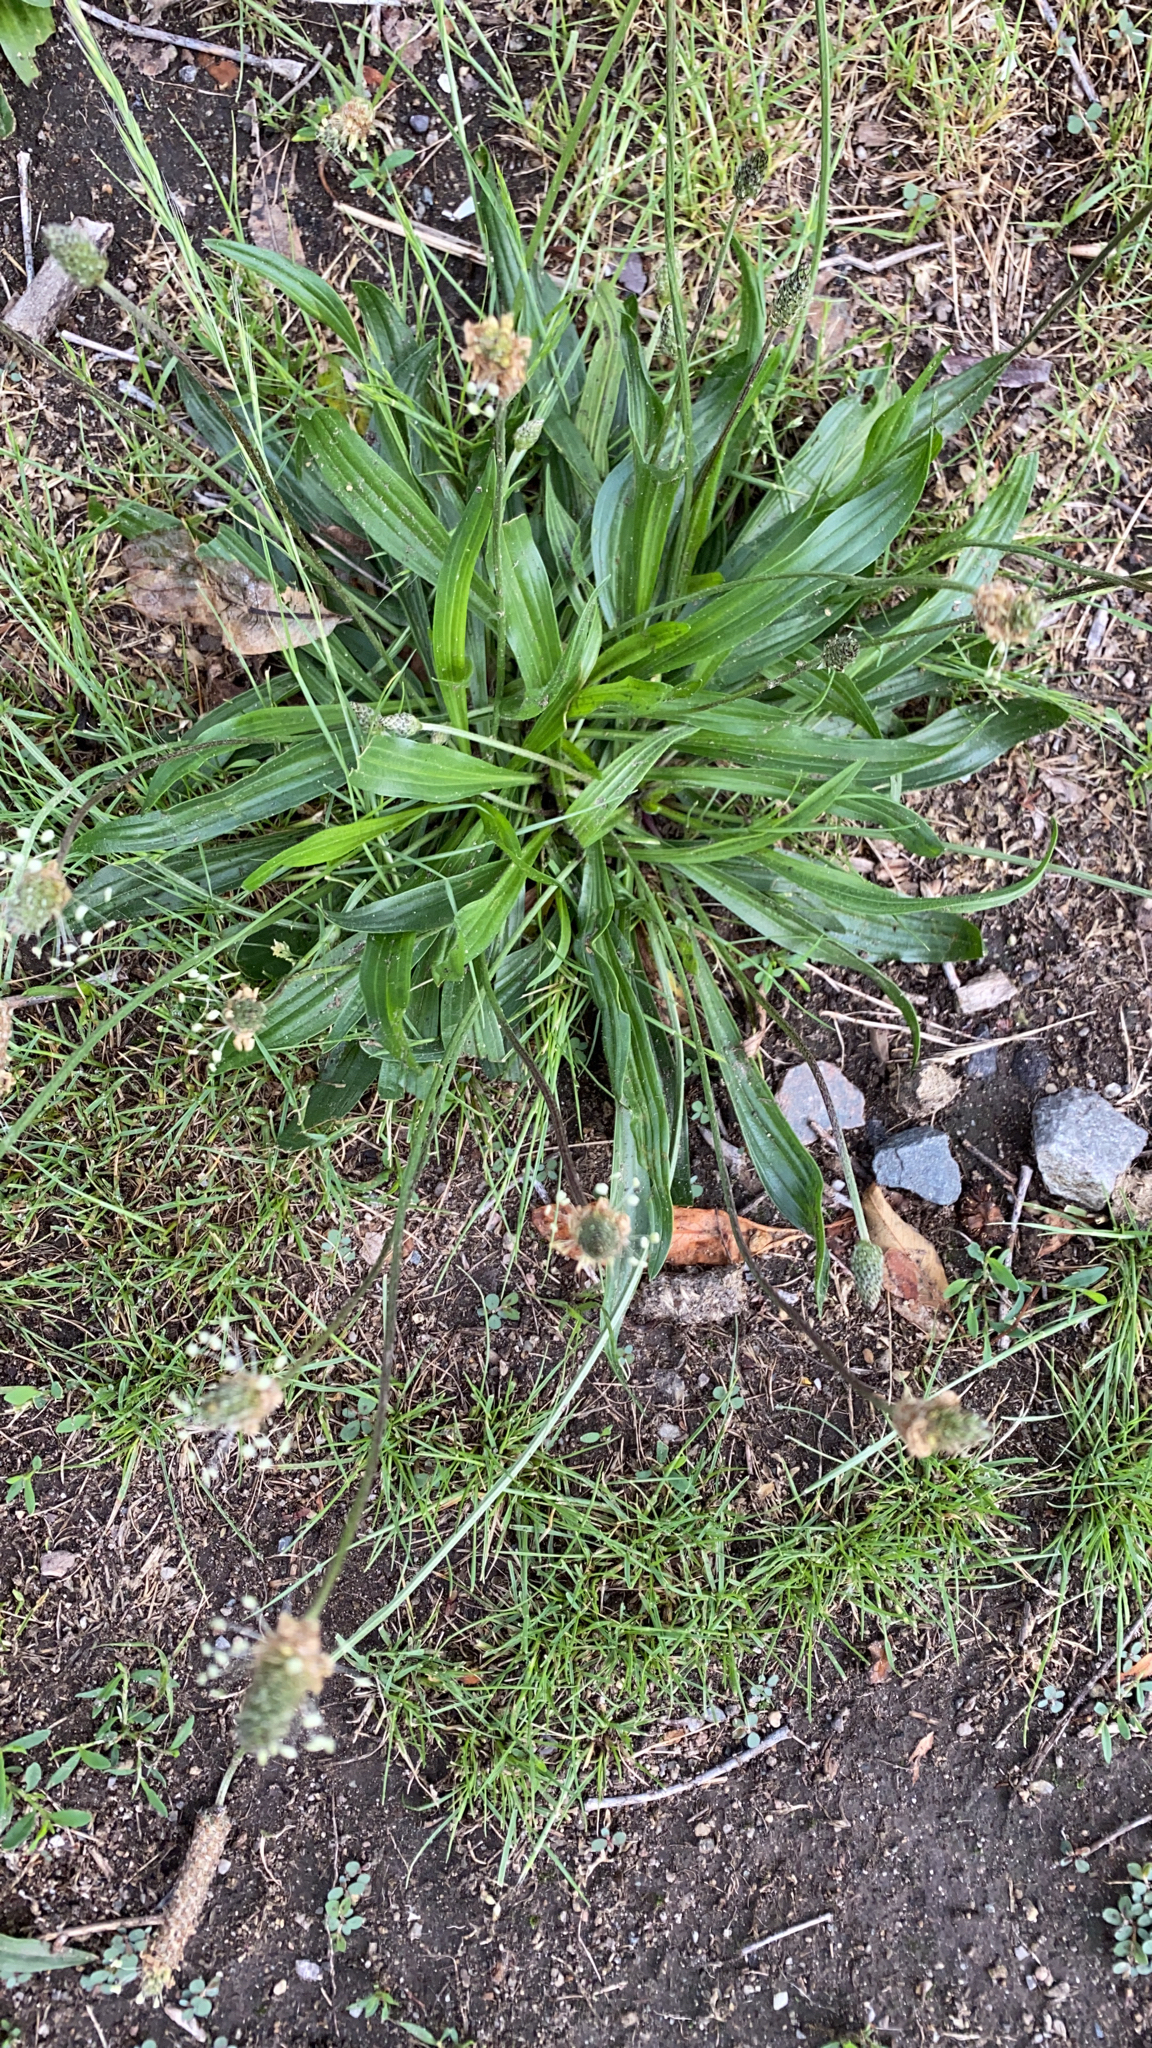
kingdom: Plantae
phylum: Tracheophyta
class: Magnoliopsida
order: Lamiales
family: Plantaginaceae
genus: Plantago
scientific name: Plantago lanceolata
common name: Ribwort plantain
